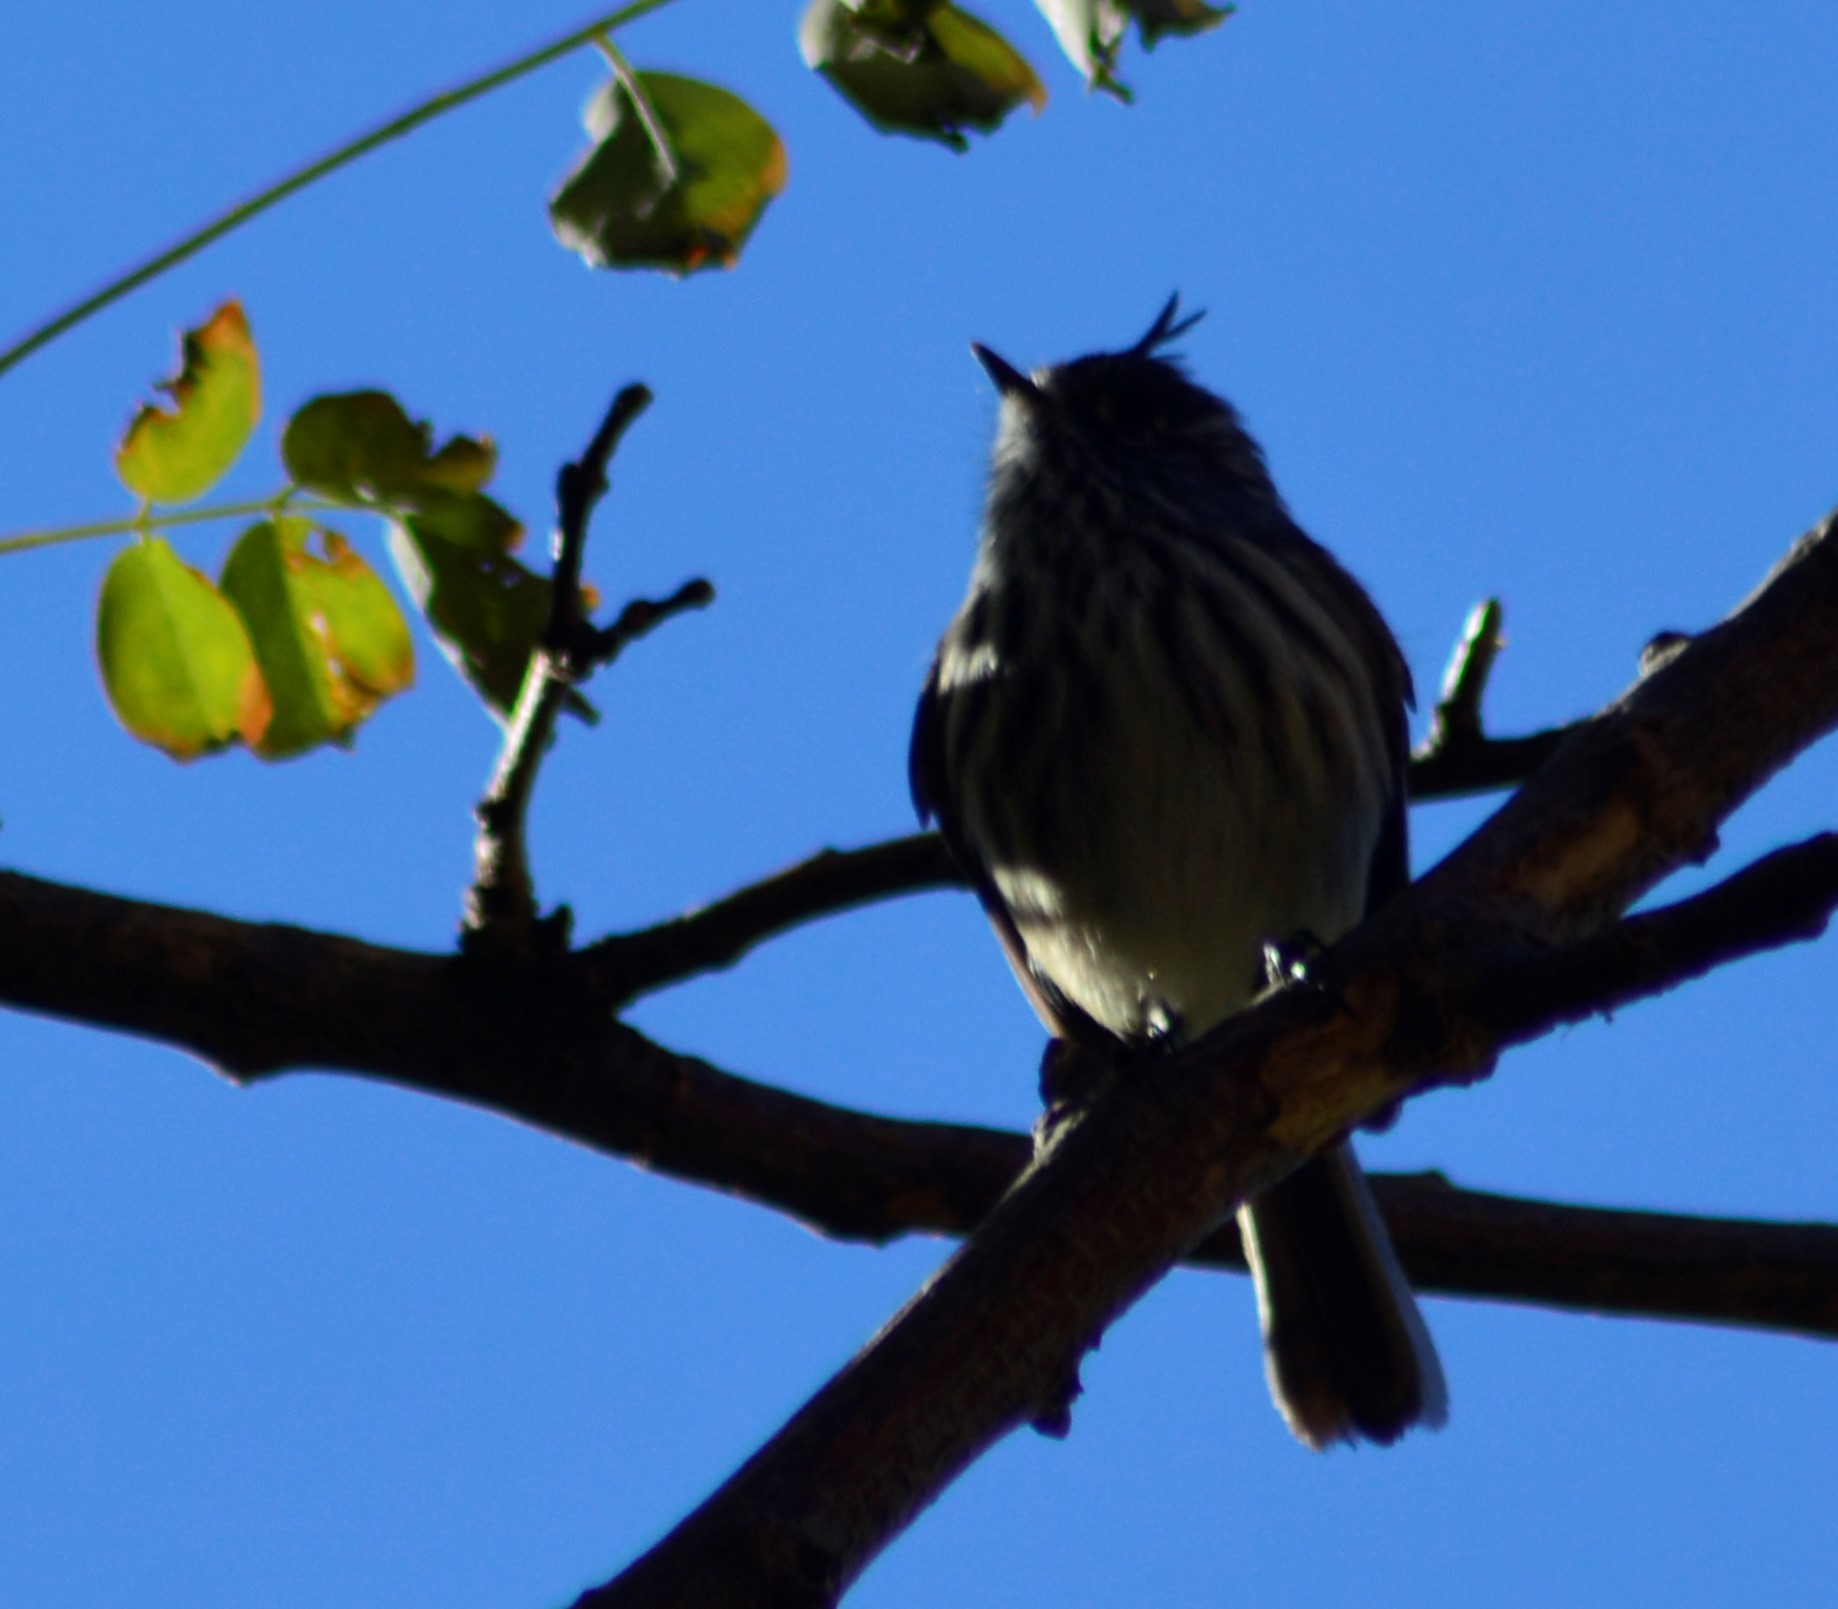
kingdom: Animalia
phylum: Chordata
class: Aves
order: Passeriformes
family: Tyrannidae
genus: Anairetes
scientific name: Anairetes parulus
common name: Tufted tit-tyrant
